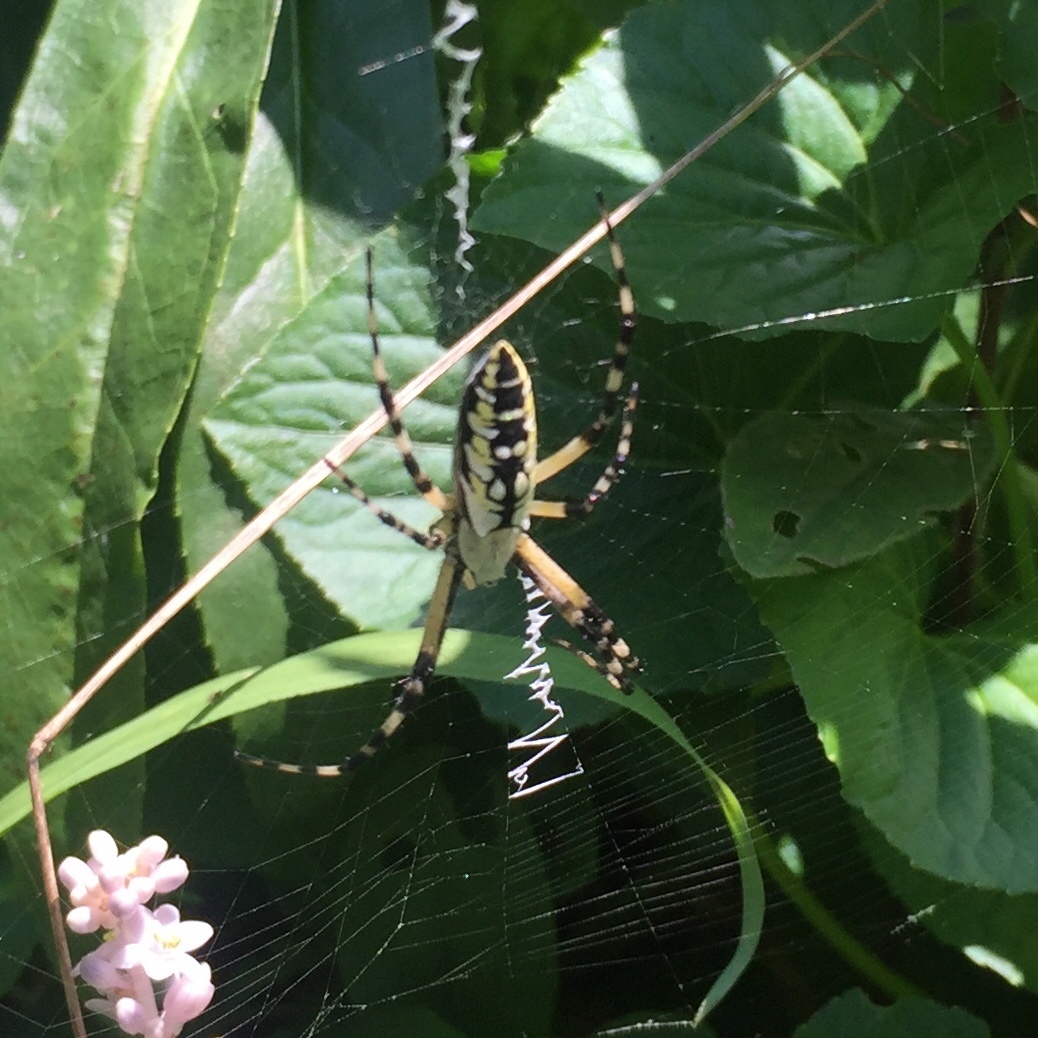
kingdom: Animalia
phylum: Arthropoda
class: Arachnida
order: Araneae
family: Araneidae
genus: Argiope
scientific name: Argiope aurantia
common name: Orb weavers
